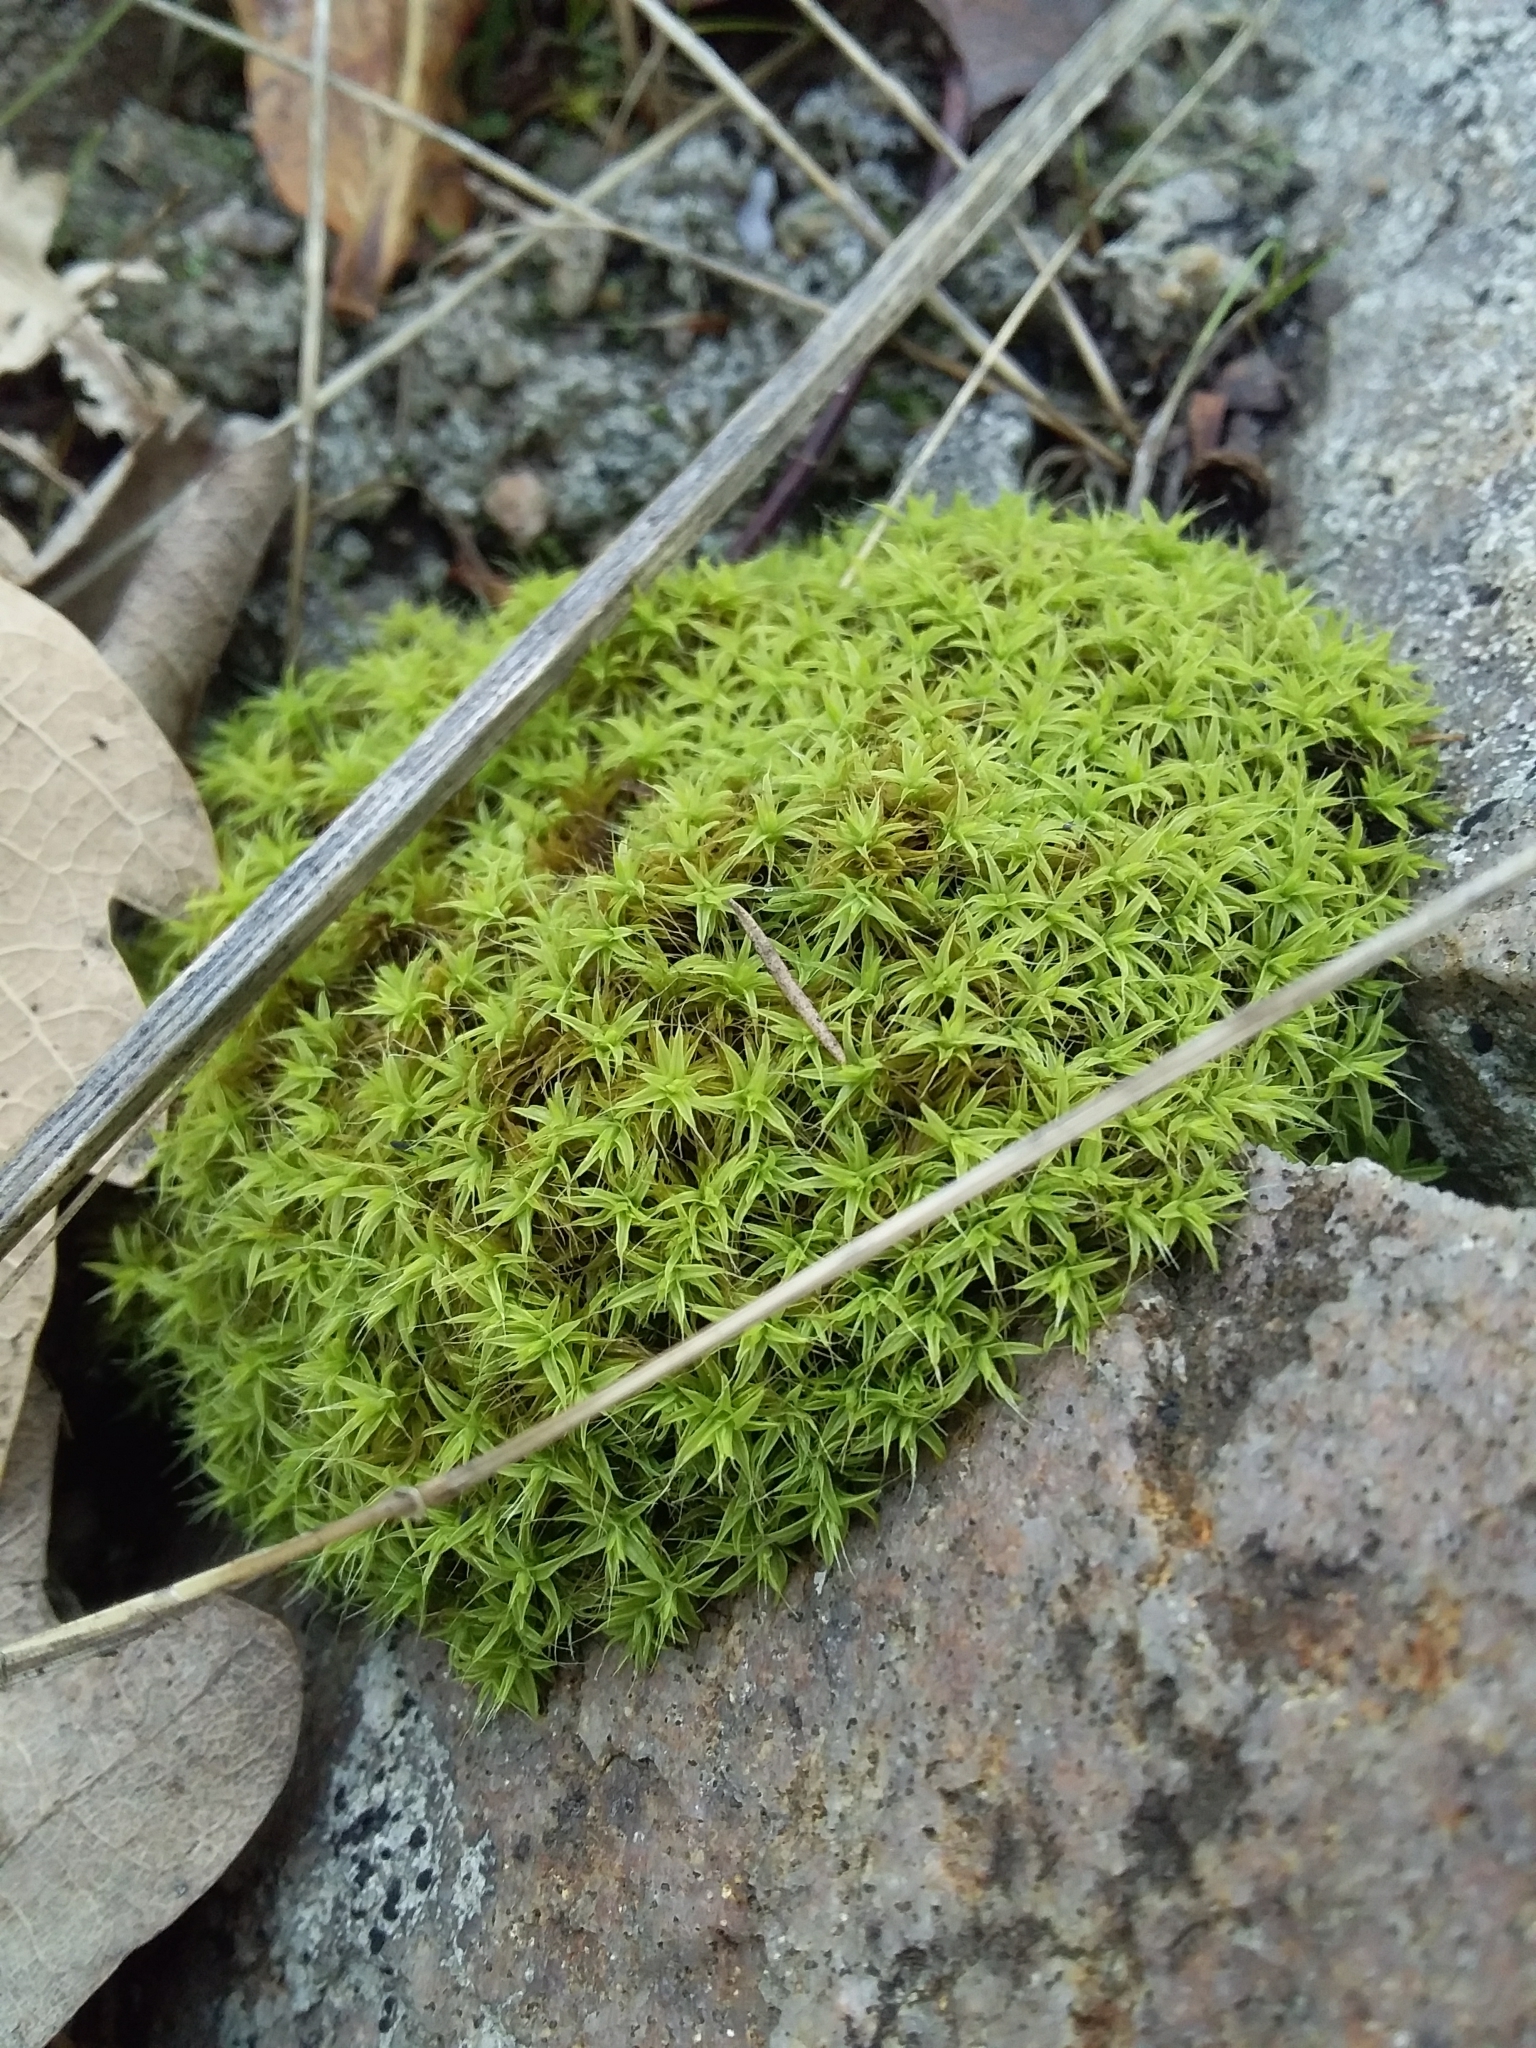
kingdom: Plantae
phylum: Bryophyta
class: Bryopsida
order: Pottiales
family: Pottiaceae
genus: Pseudocrossidium
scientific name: Pseudocrossidium crinitum
